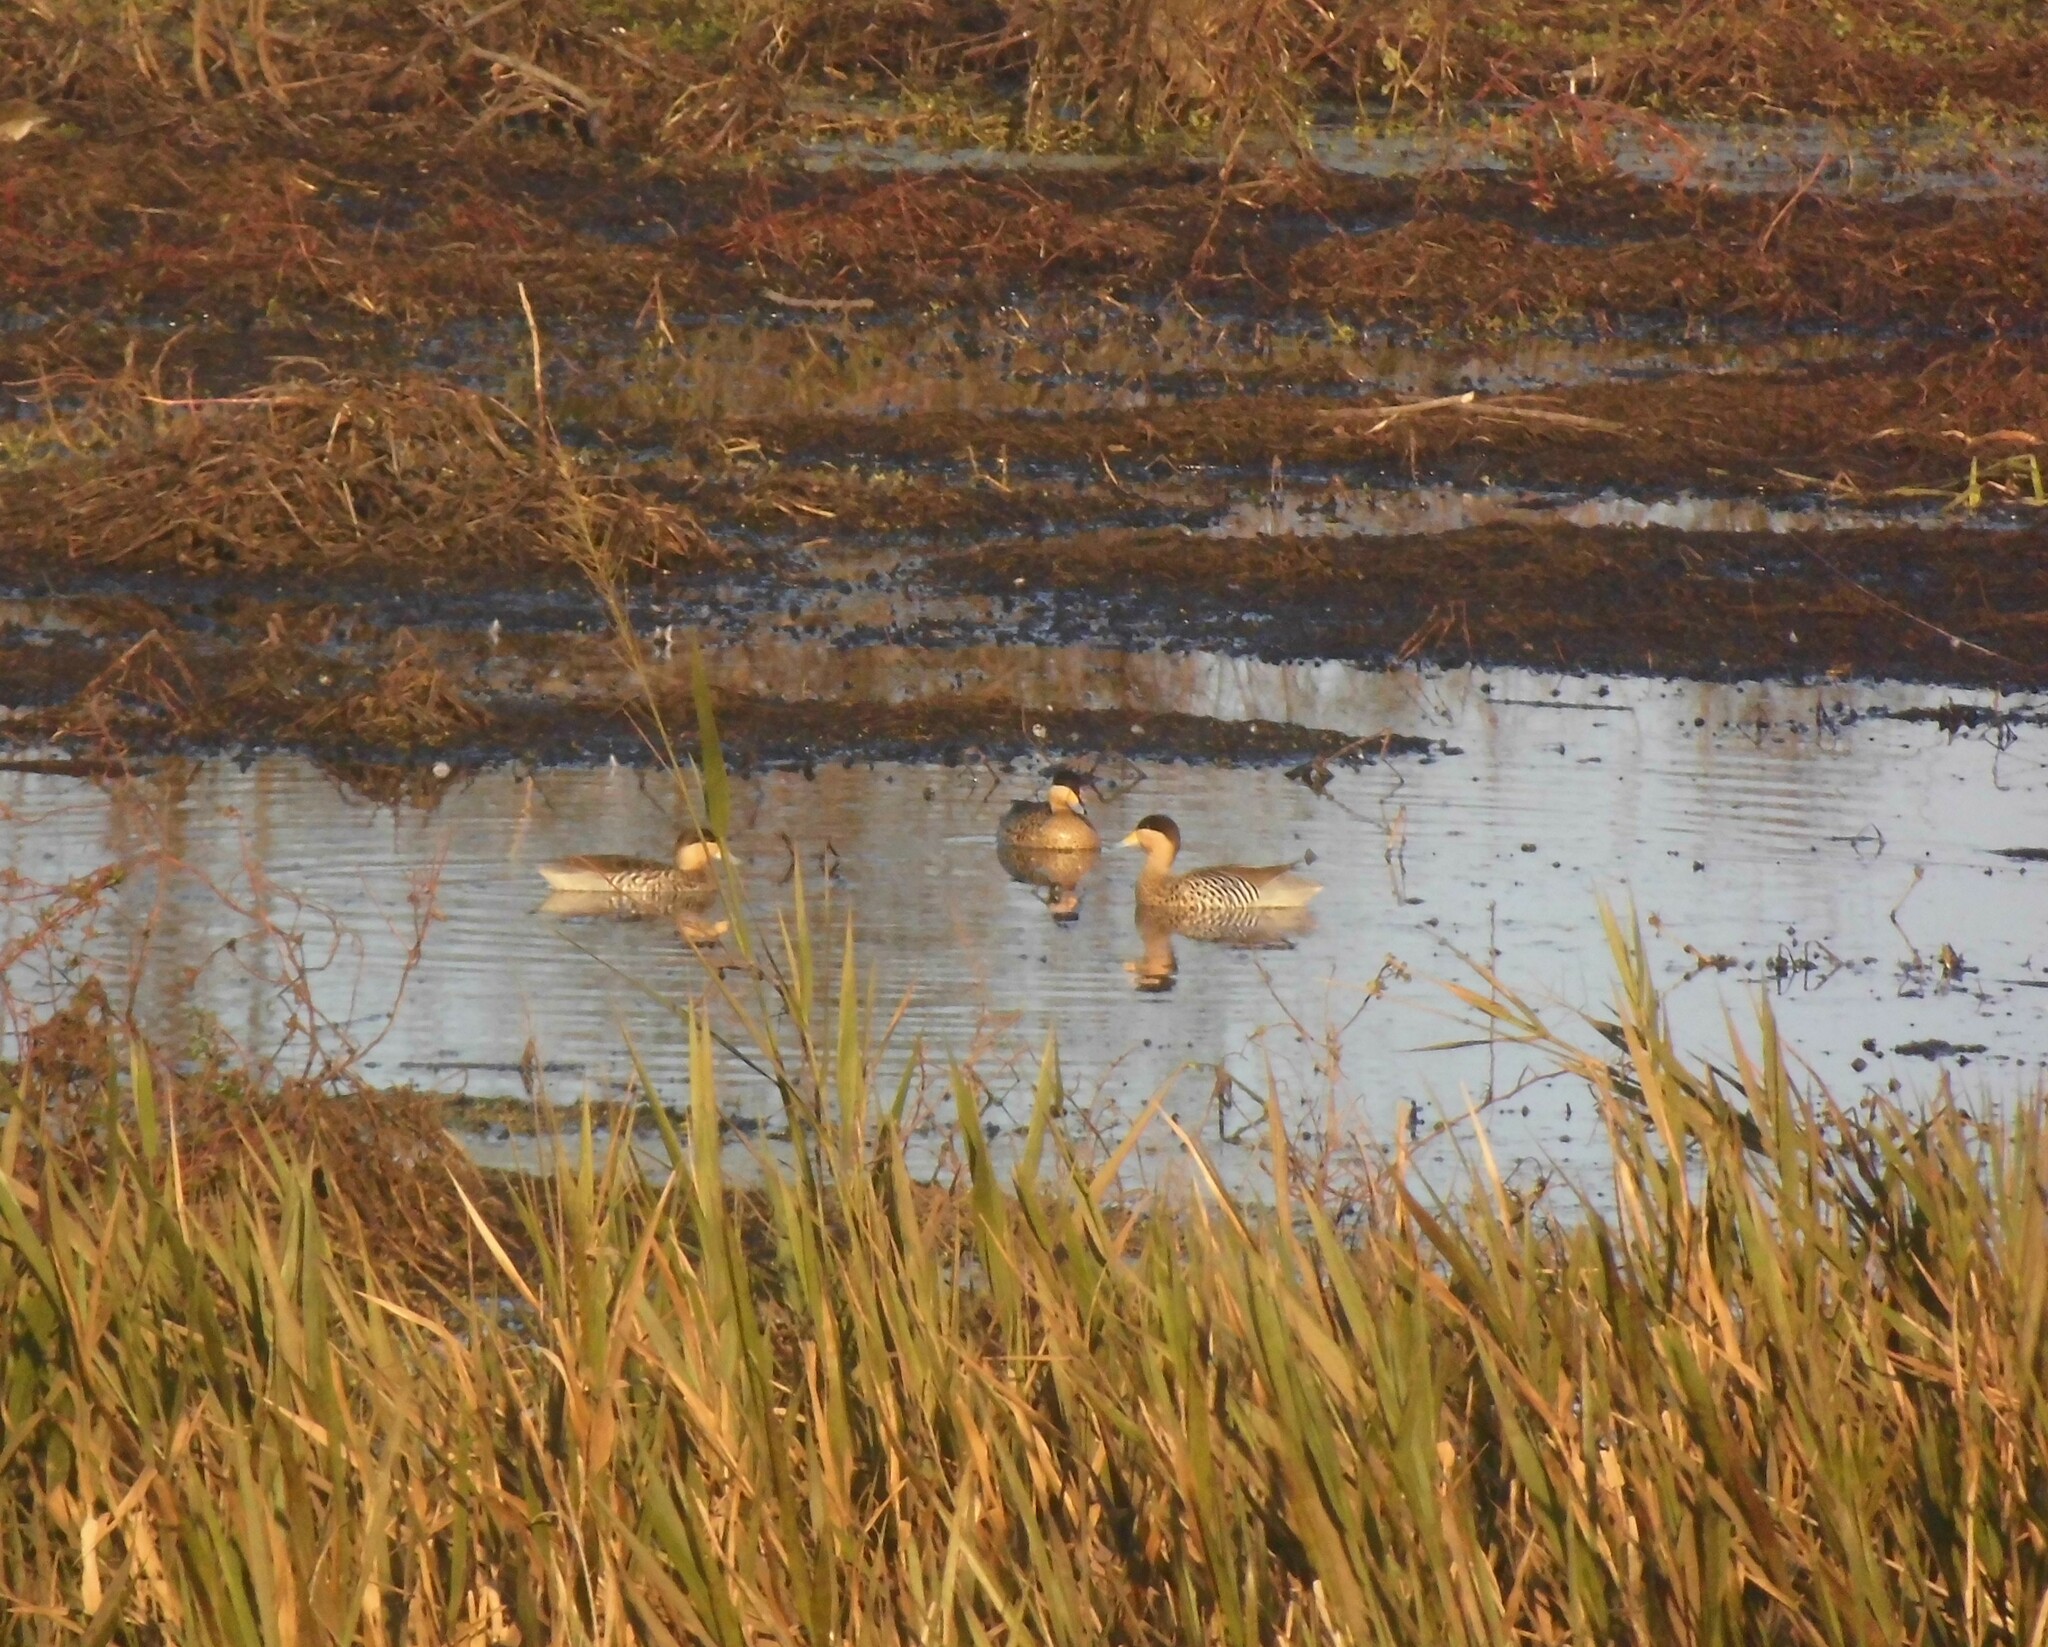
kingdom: Animalia
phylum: Chordata
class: Aves
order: Anseriformes
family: Anatidae
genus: Spatula
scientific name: Spatula versicolor
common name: Silver teal
